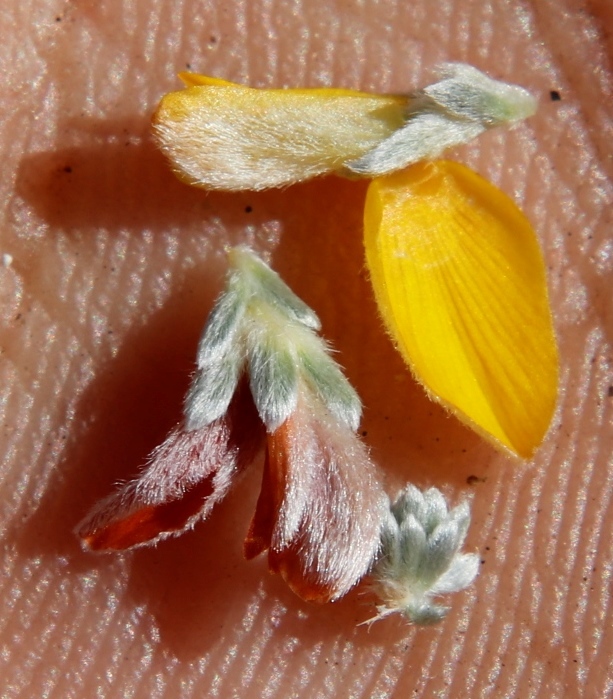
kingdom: Plantae
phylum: Tracheophyta
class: Magnoliopsida
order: Fabales
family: Fabaceae
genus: Aspalathus
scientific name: Aspalathus bodkinii
